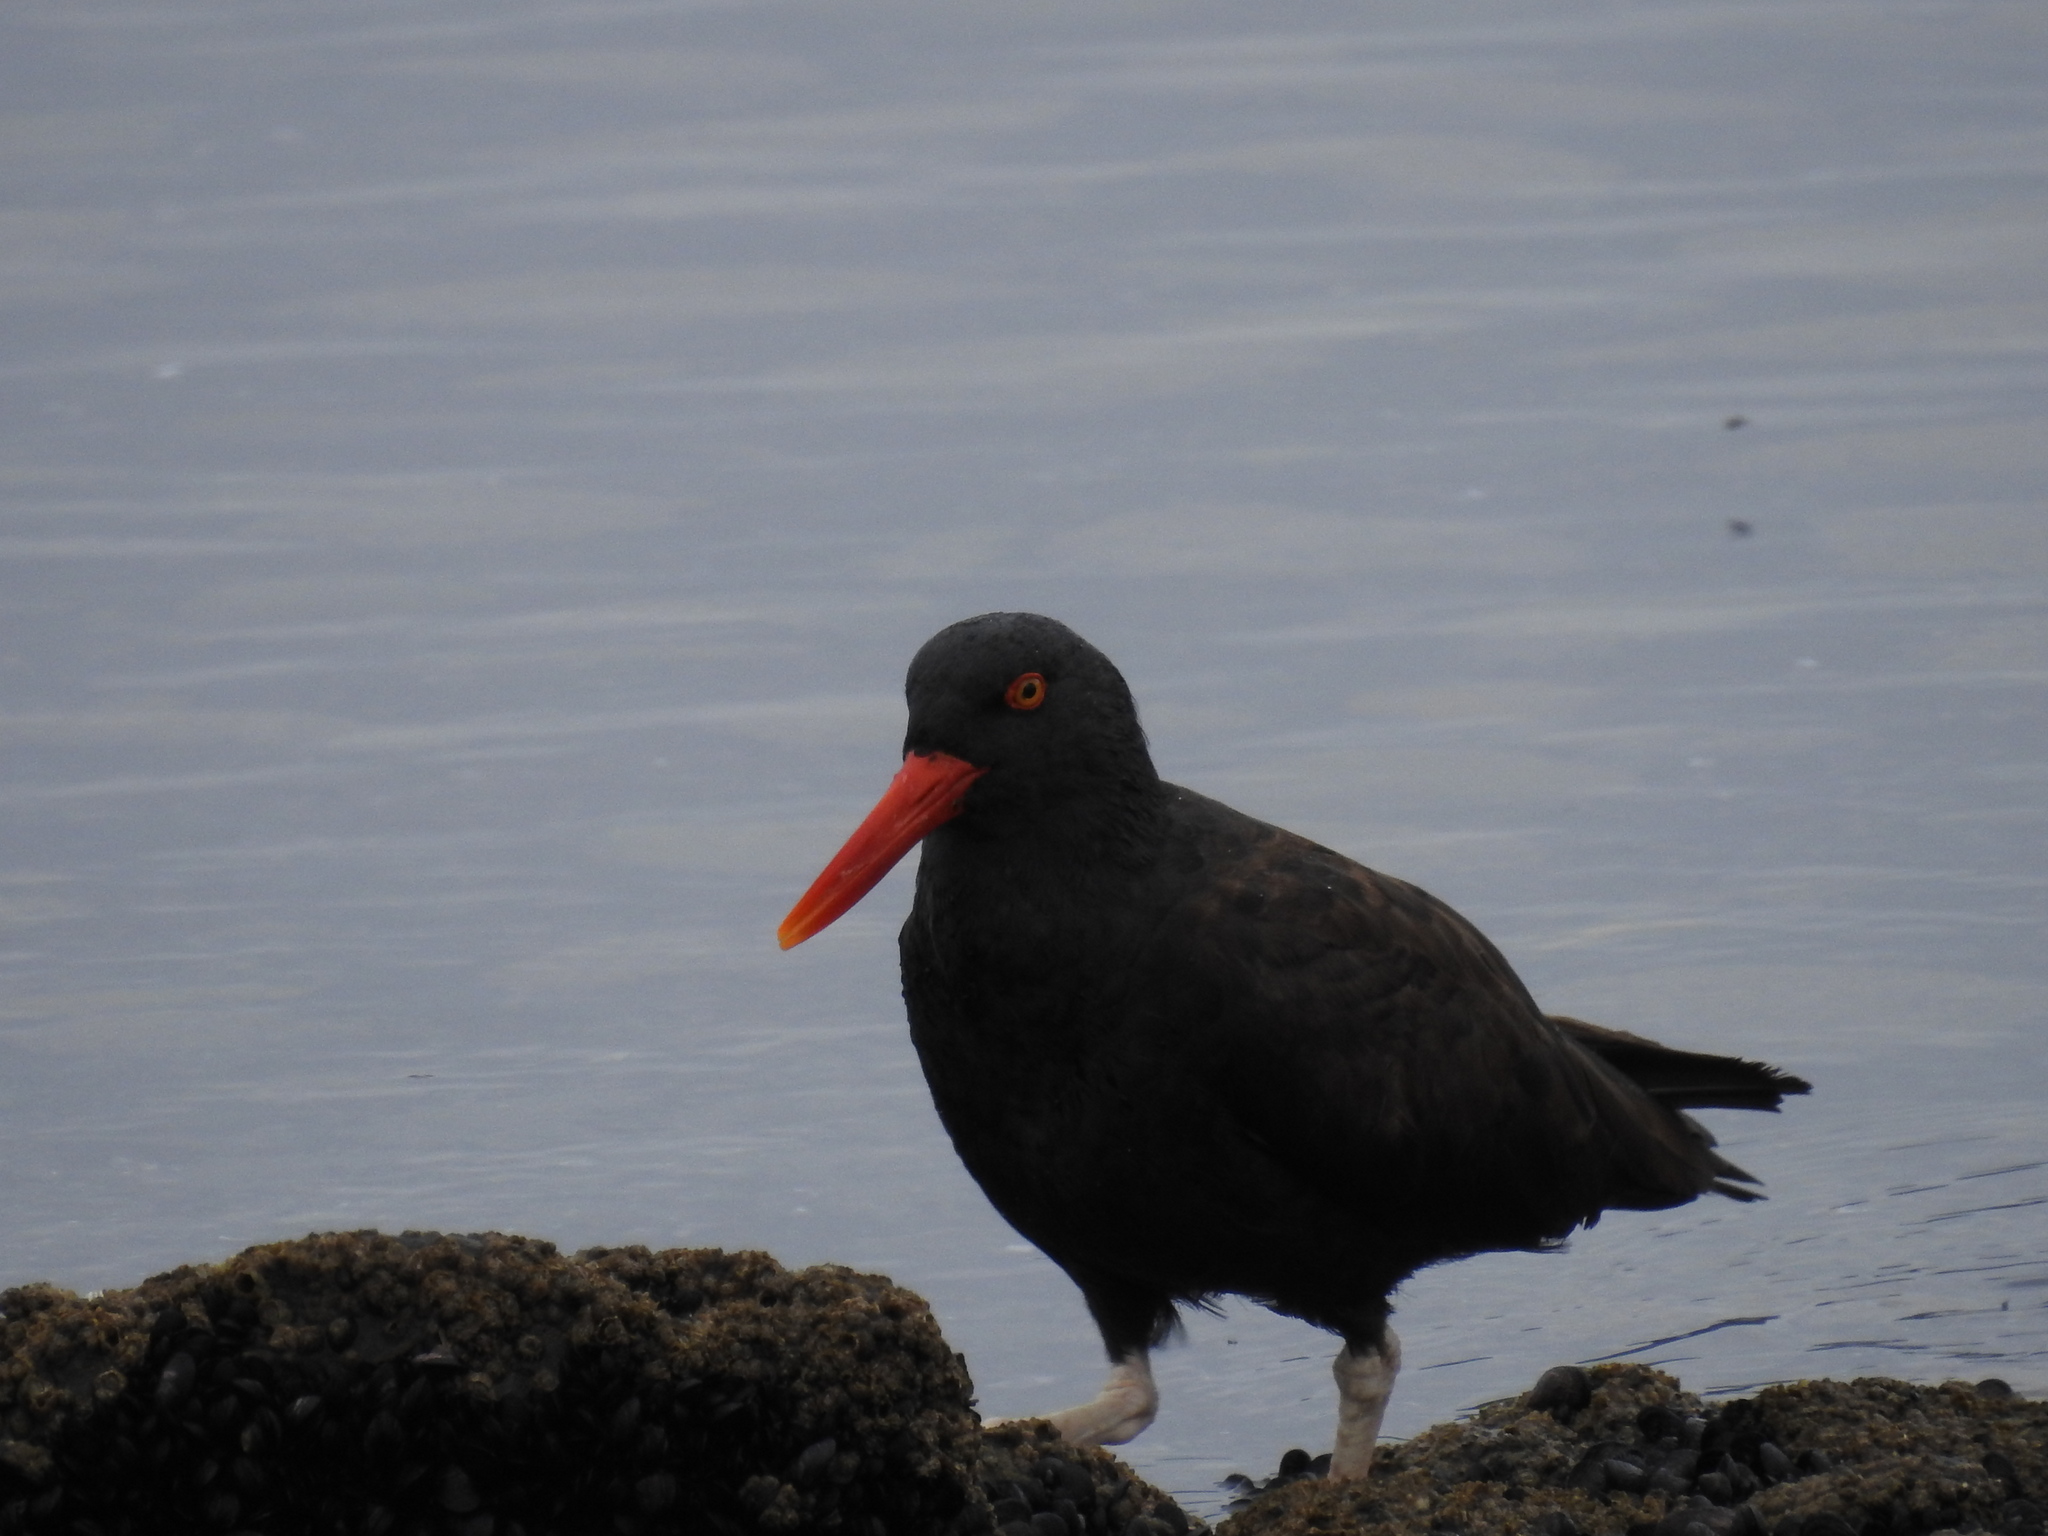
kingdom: Animalia
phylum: Chordata
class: Aves
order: Charadriiformes
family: Haematopodidae
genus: Haematopus
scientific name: Haematopus ater
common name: Blackish oystercatcher
